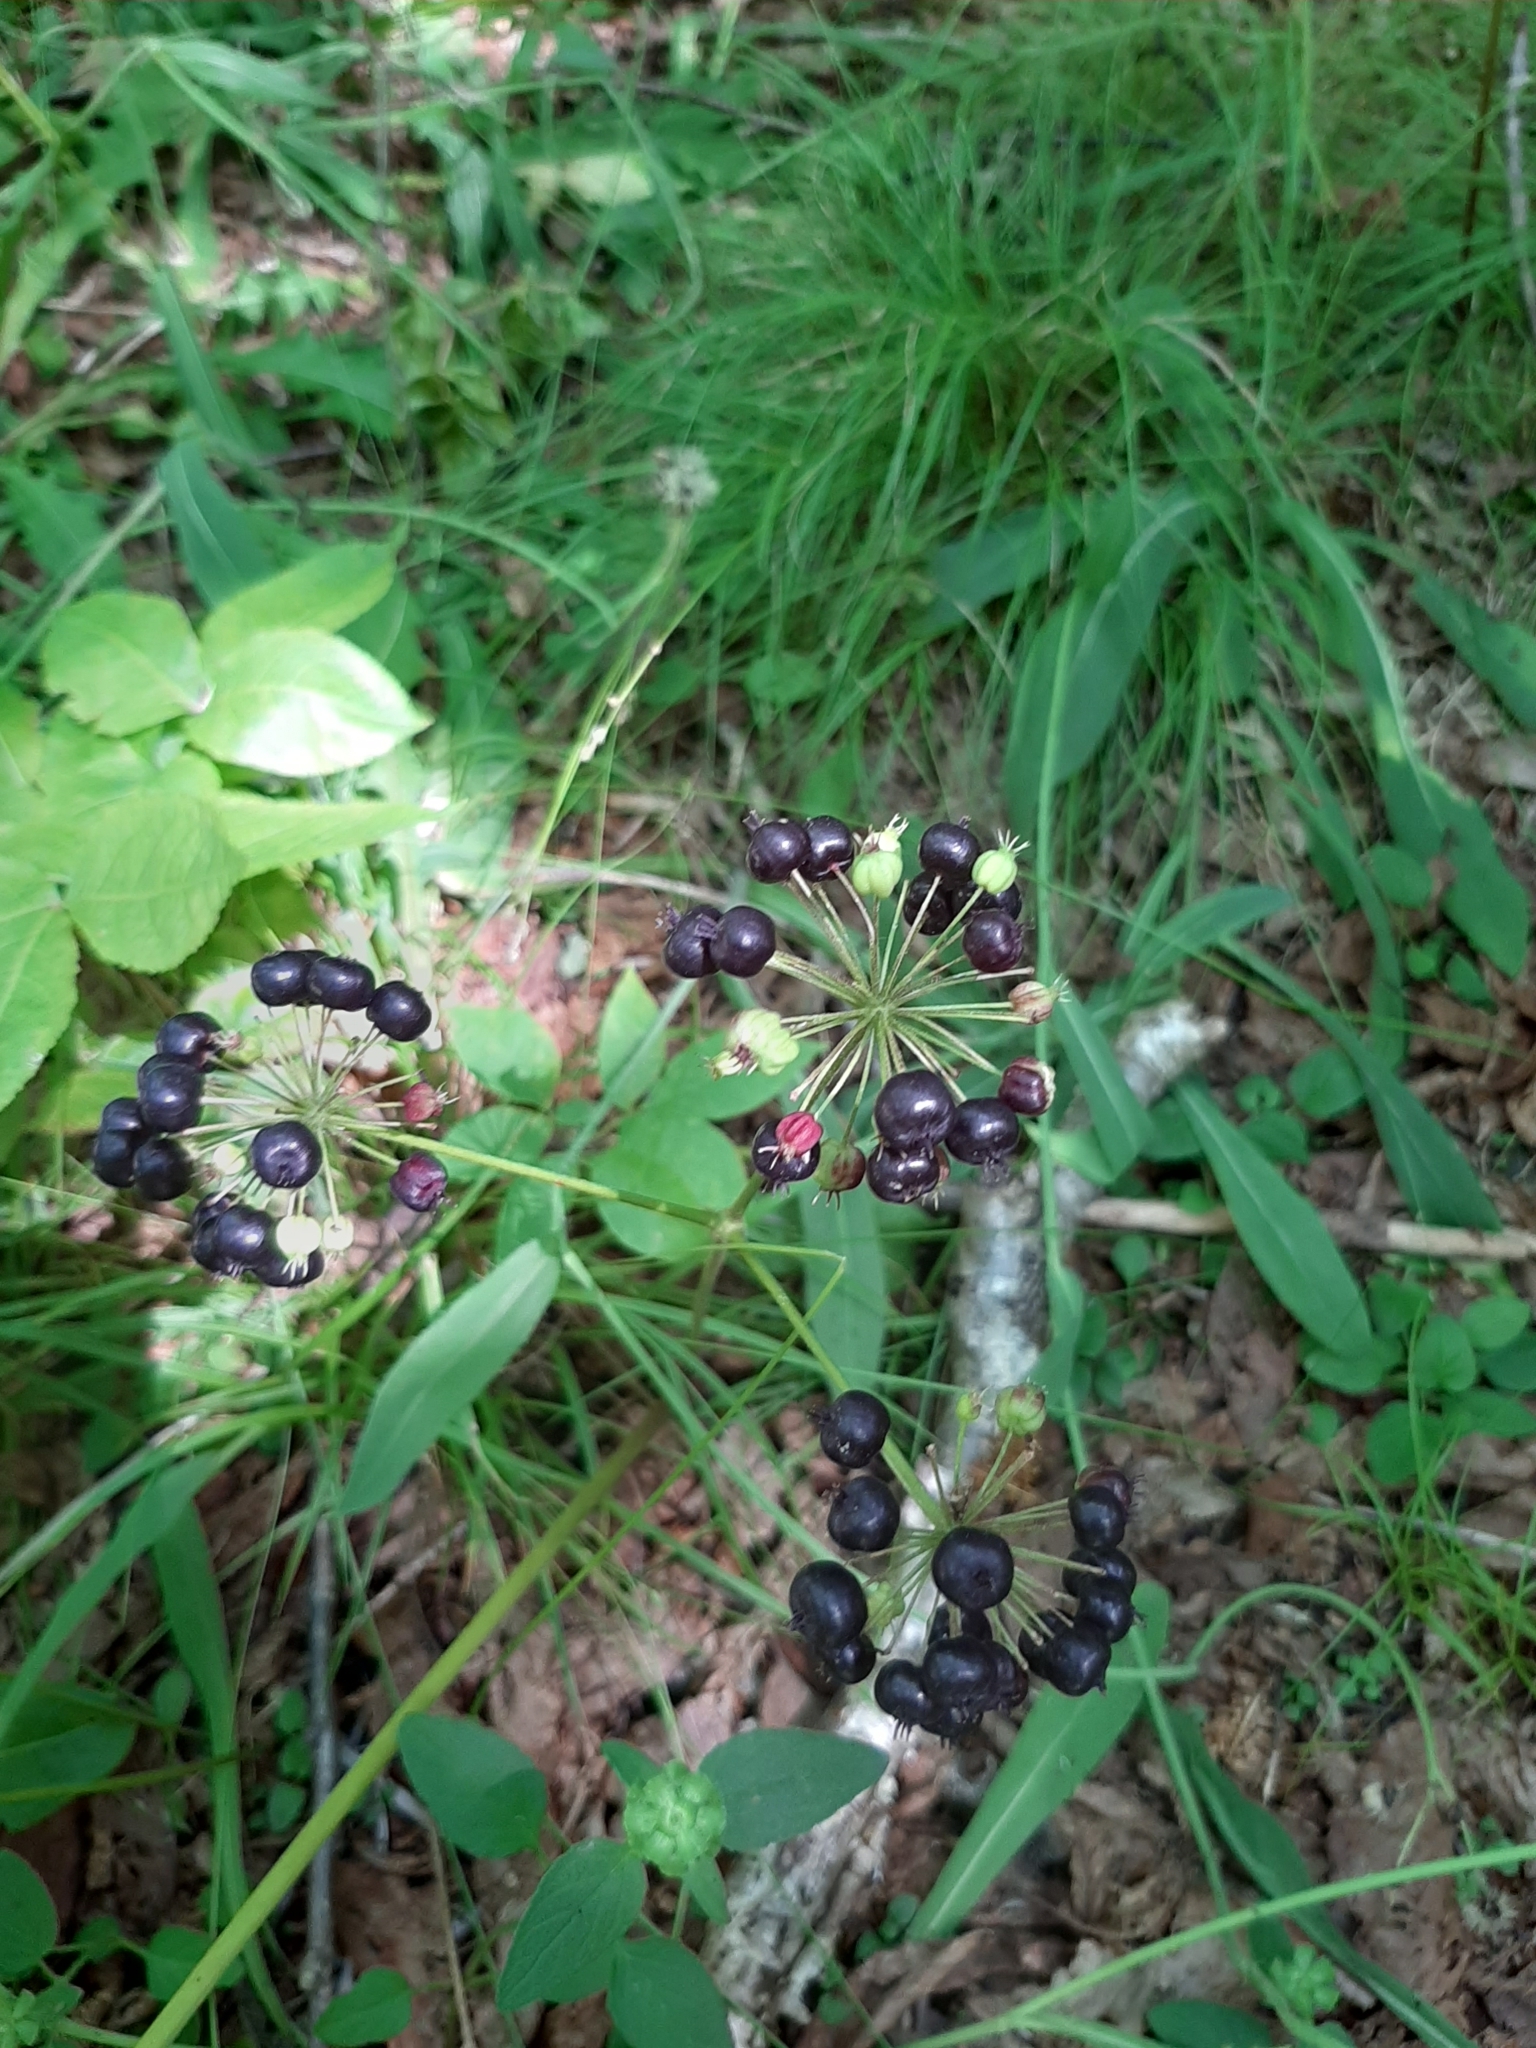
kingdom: Plantae
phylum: Tracheophyta
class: Magnoliopsida
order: Apiales
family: Araliaceae
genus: Aralia
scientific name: Aralia nudicaulis
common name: Wild sarsaparilla
